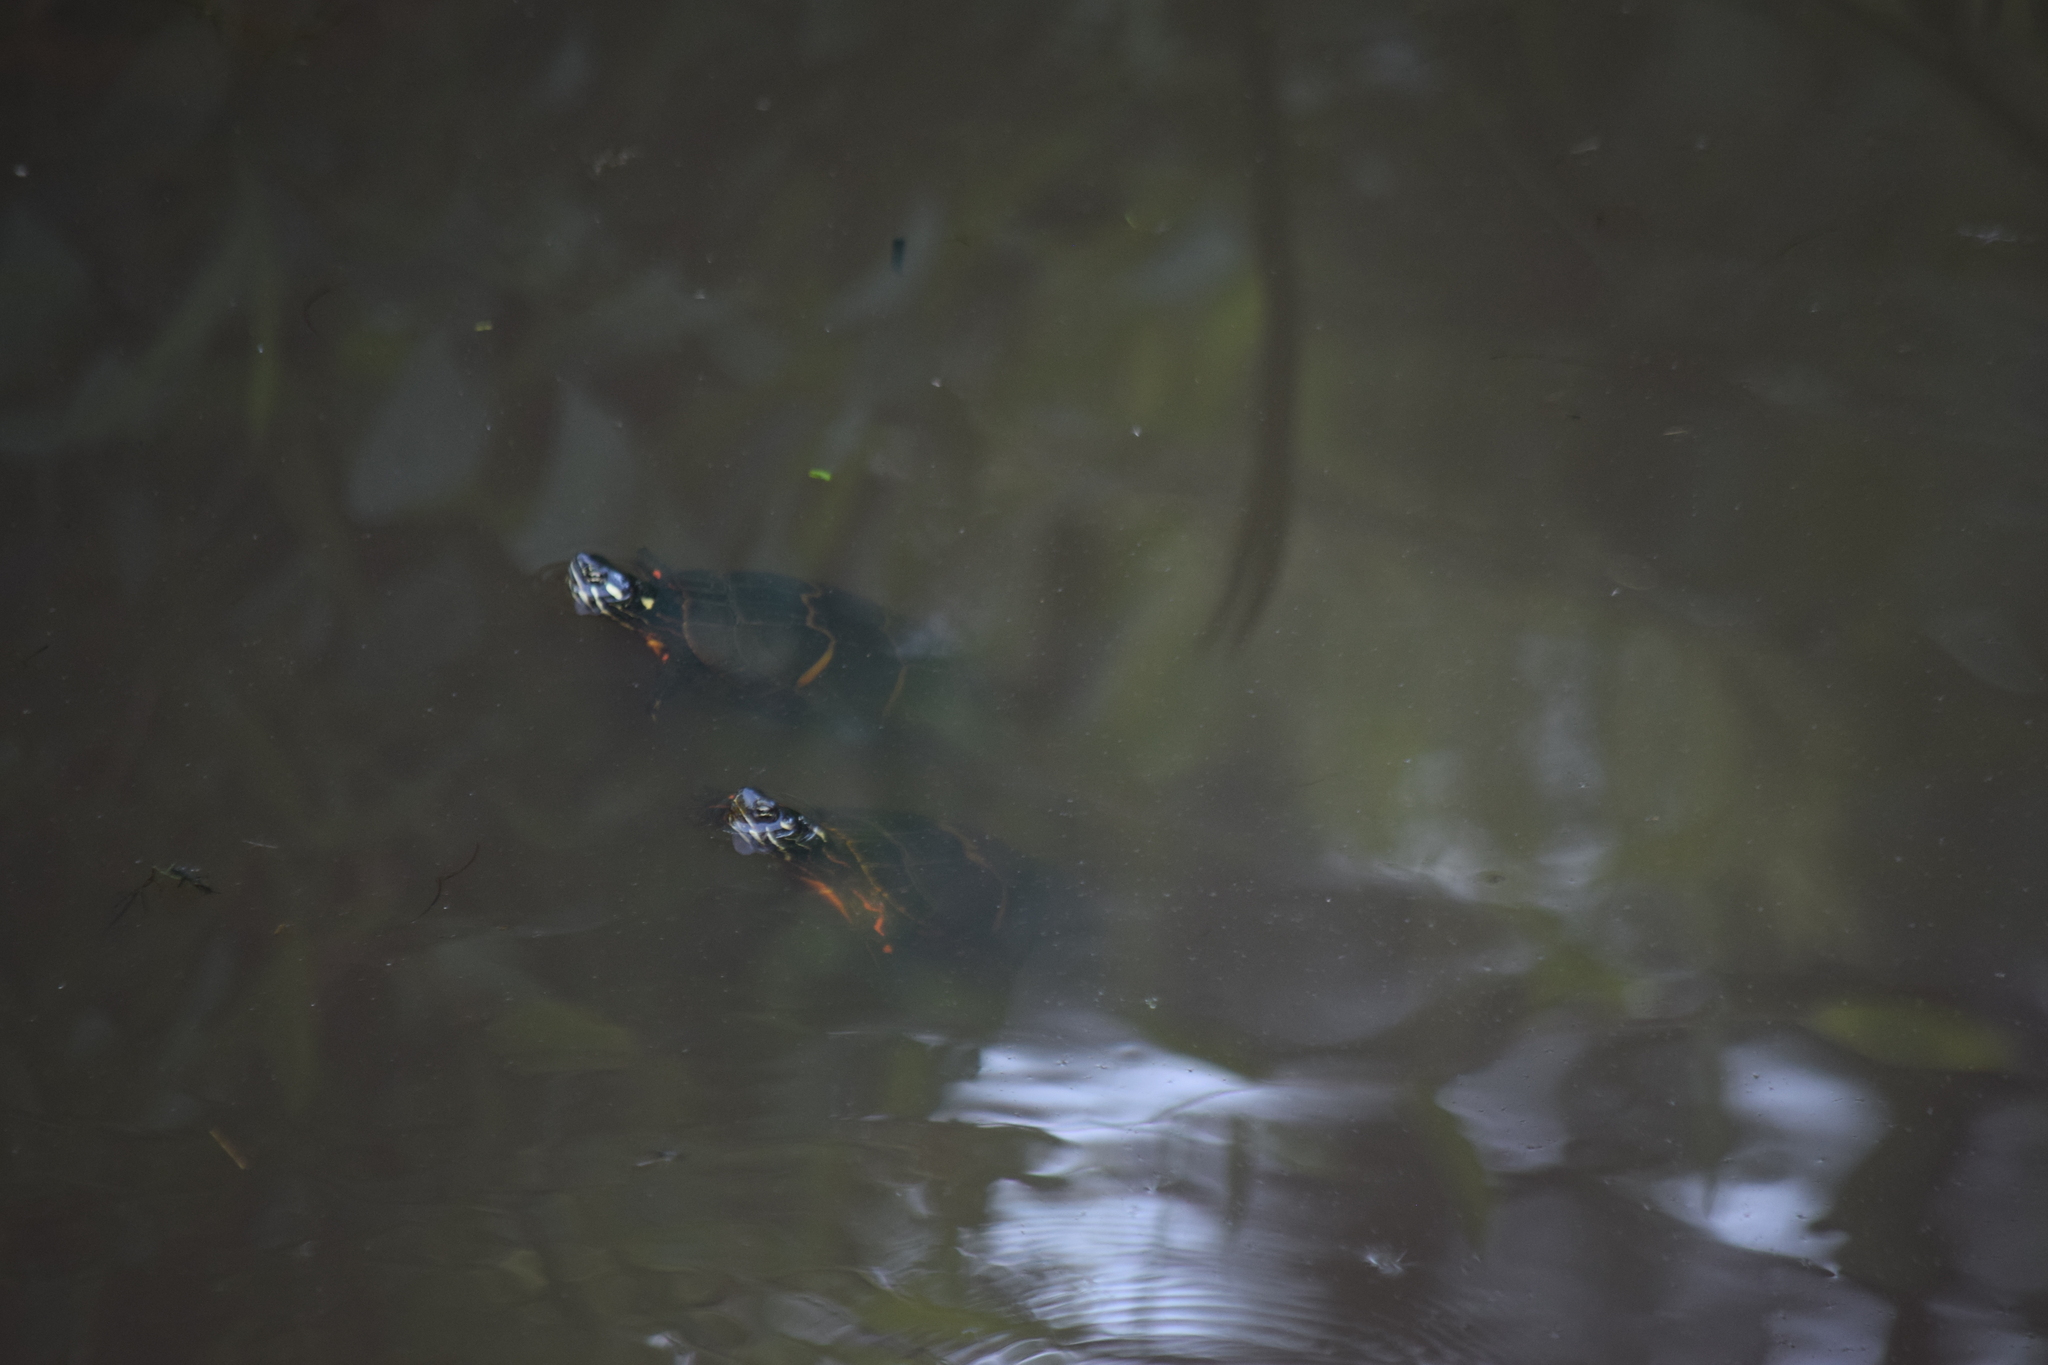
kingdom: Animalia
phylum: Chordata
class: Testudines
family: Emydidae
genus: Chrysemys
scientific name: Chrysemys picta
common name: Painted turtle
